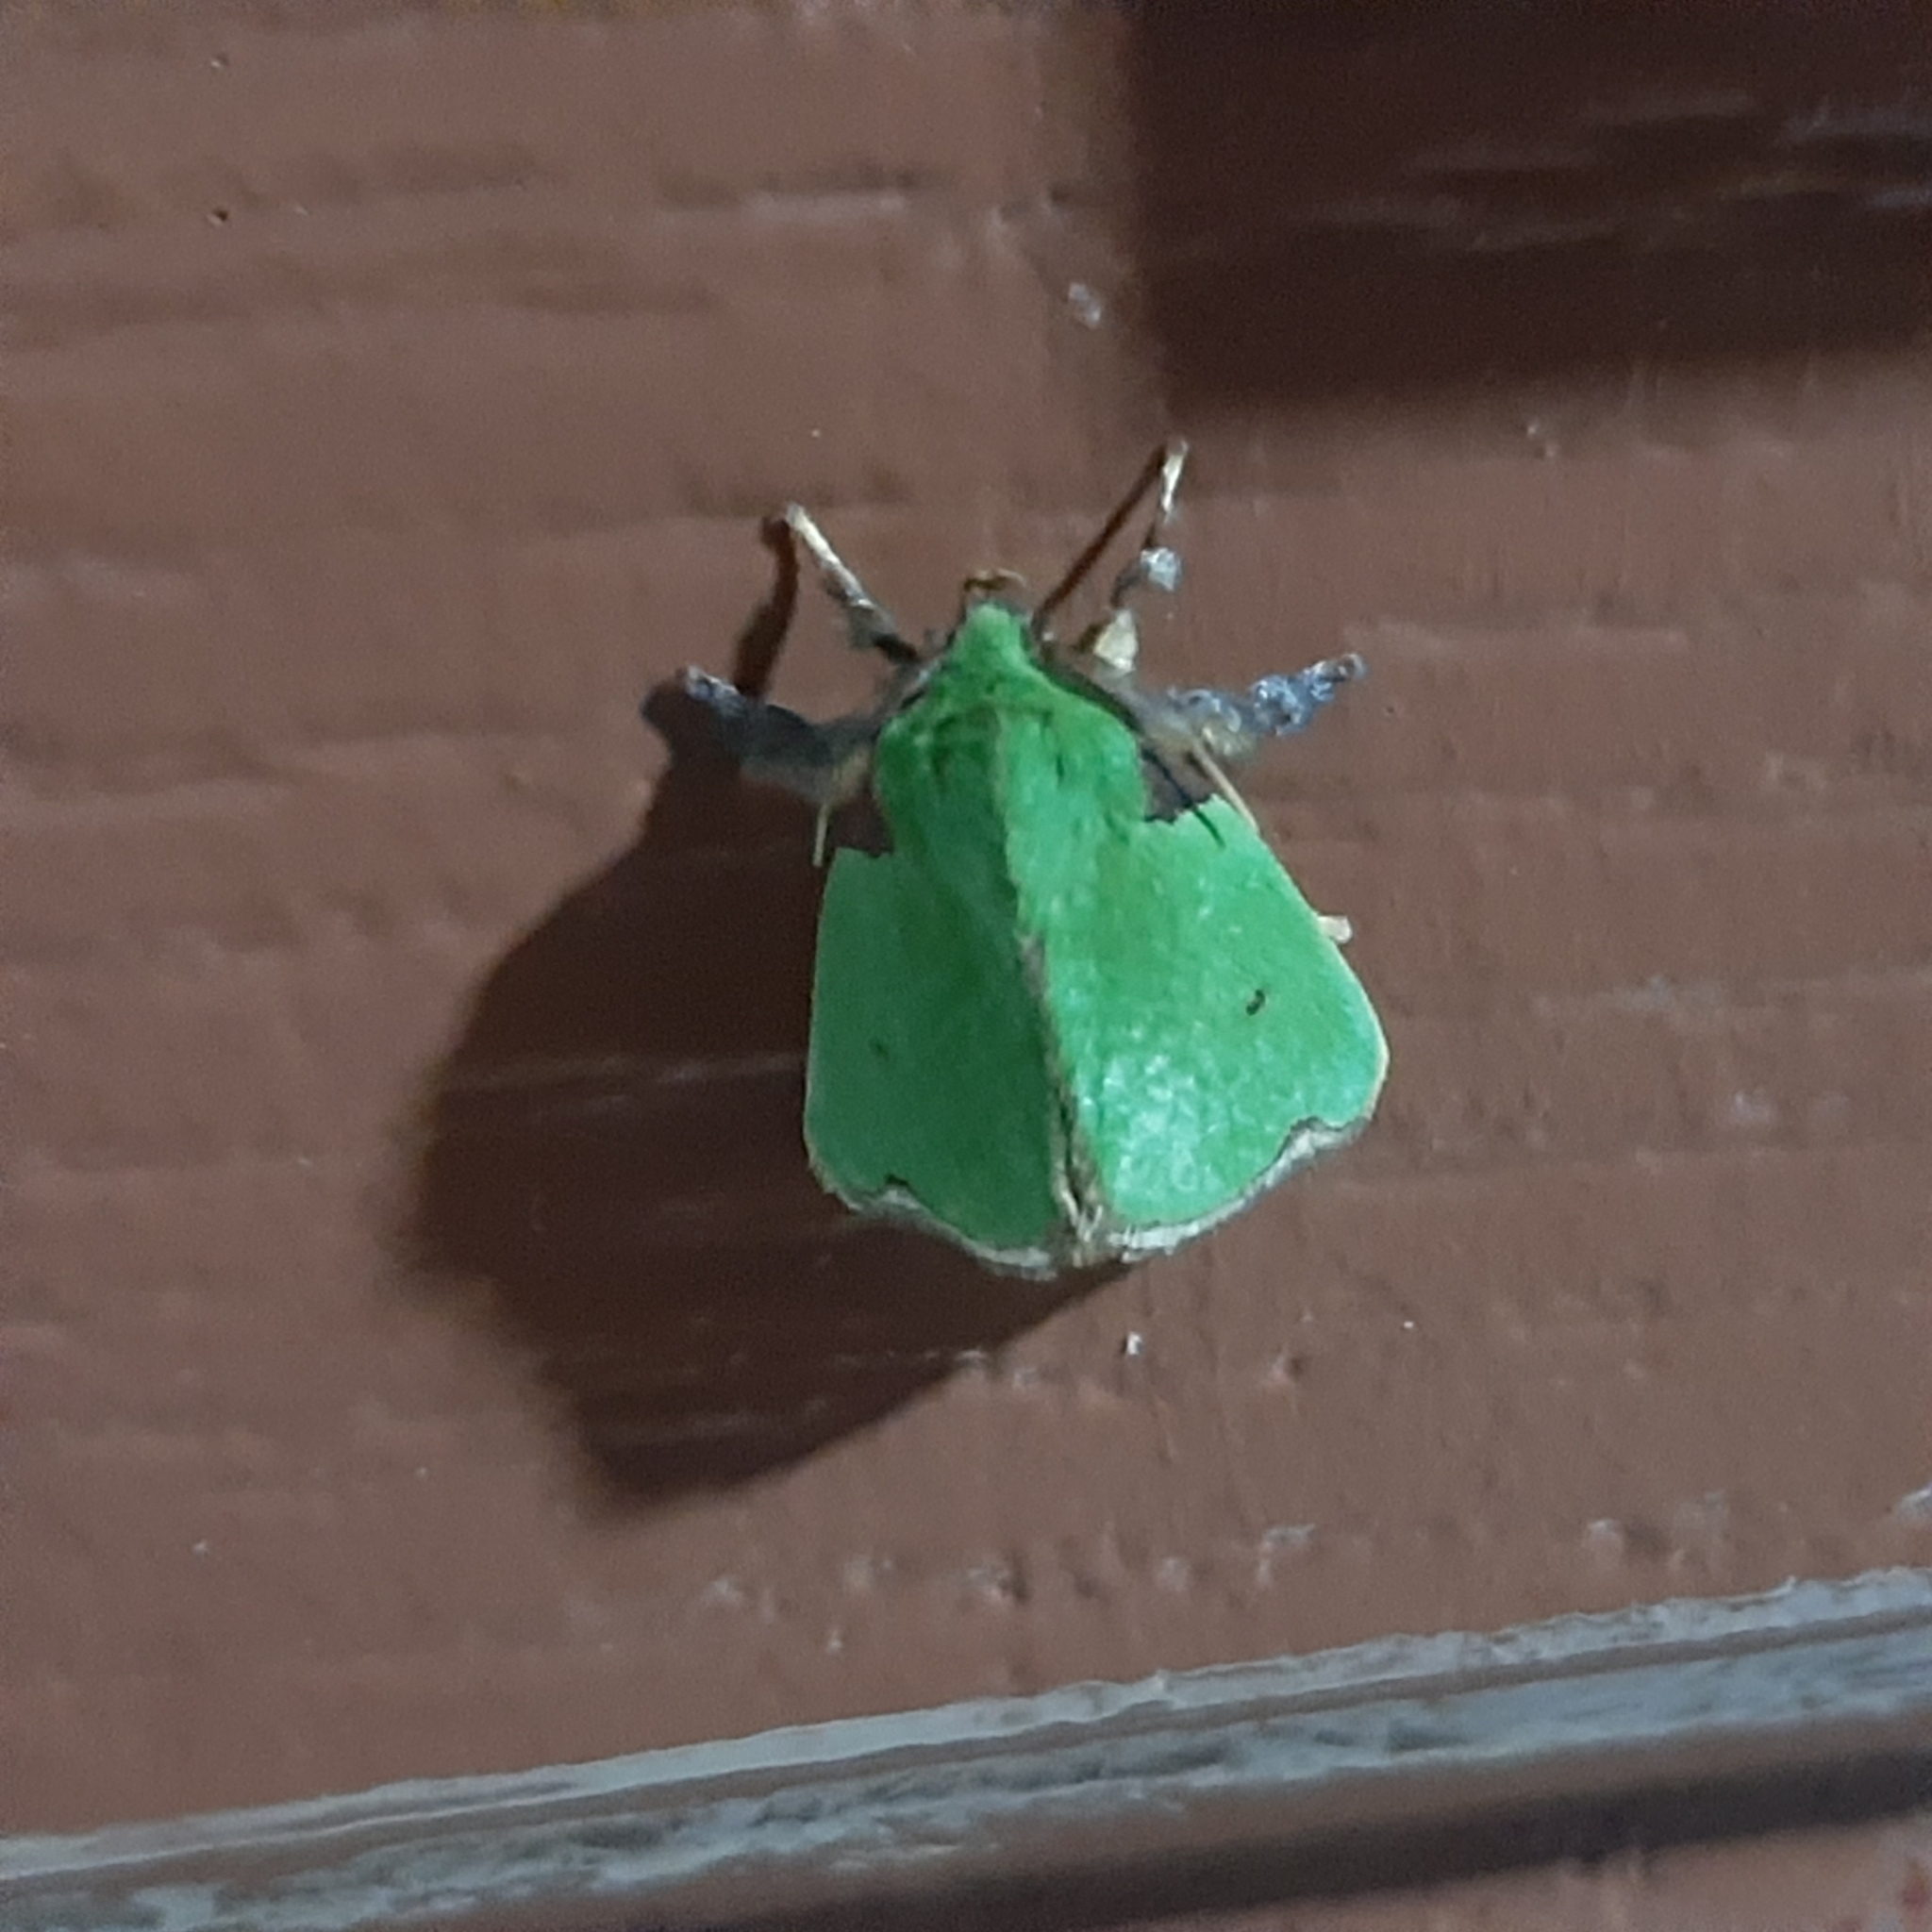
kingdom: Animalia
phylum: Arthropoda
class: Insecta
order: Lepidoptera
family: Limacodidae
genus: Parasa
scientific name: Parasa wellesca
